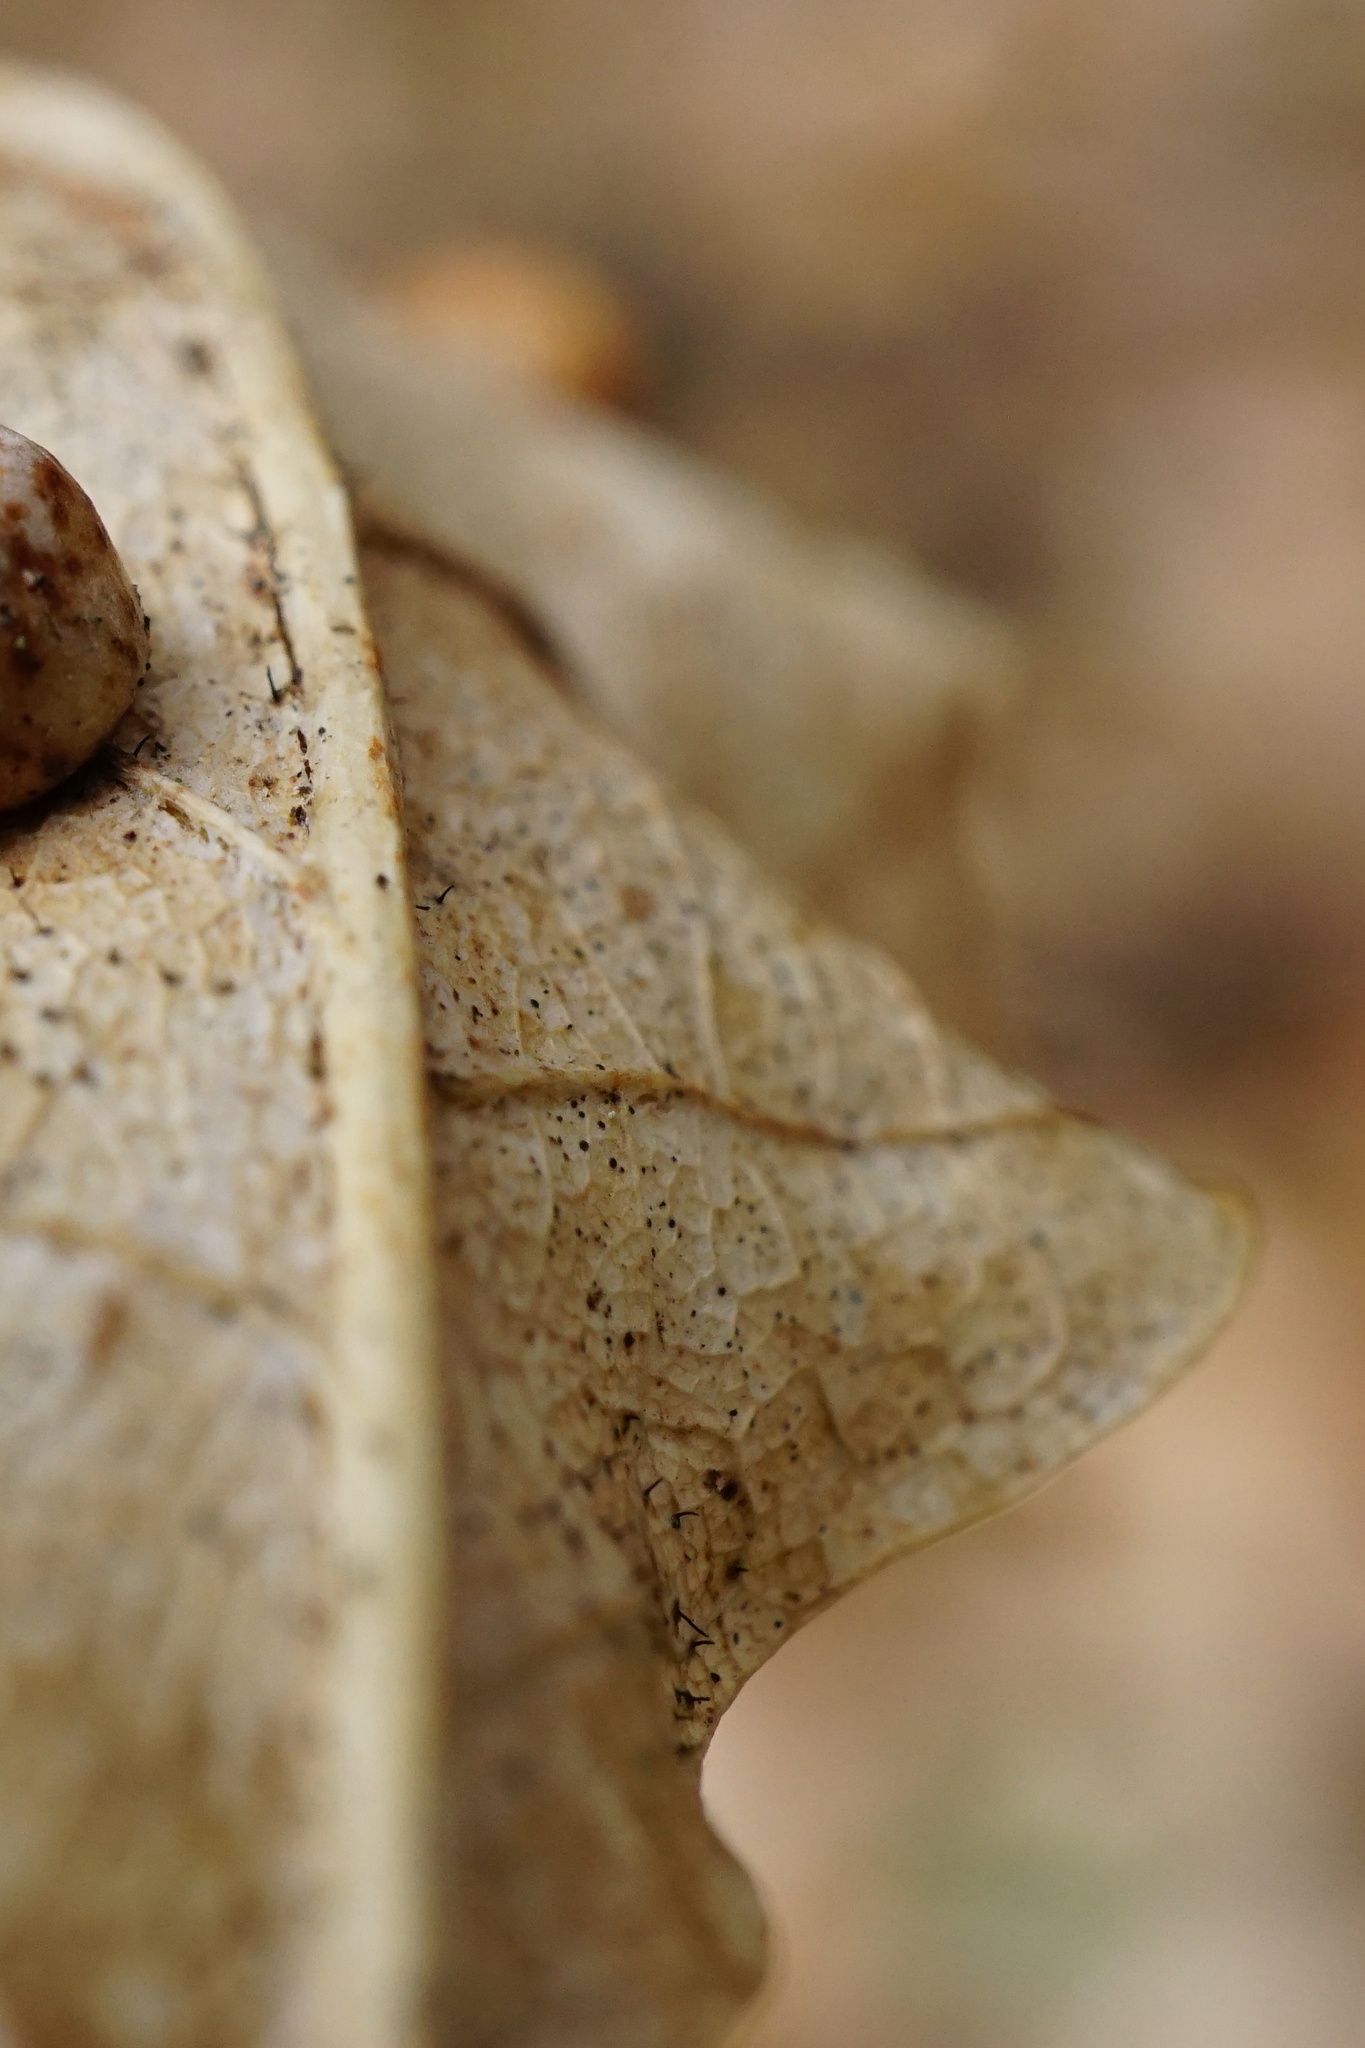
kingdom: Plantae
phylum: Tracheophyta
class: Magnoliopsida
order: Fagales
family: Fagaceae
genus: Quercus
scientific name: Quercus petraea
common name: Sessile oak
